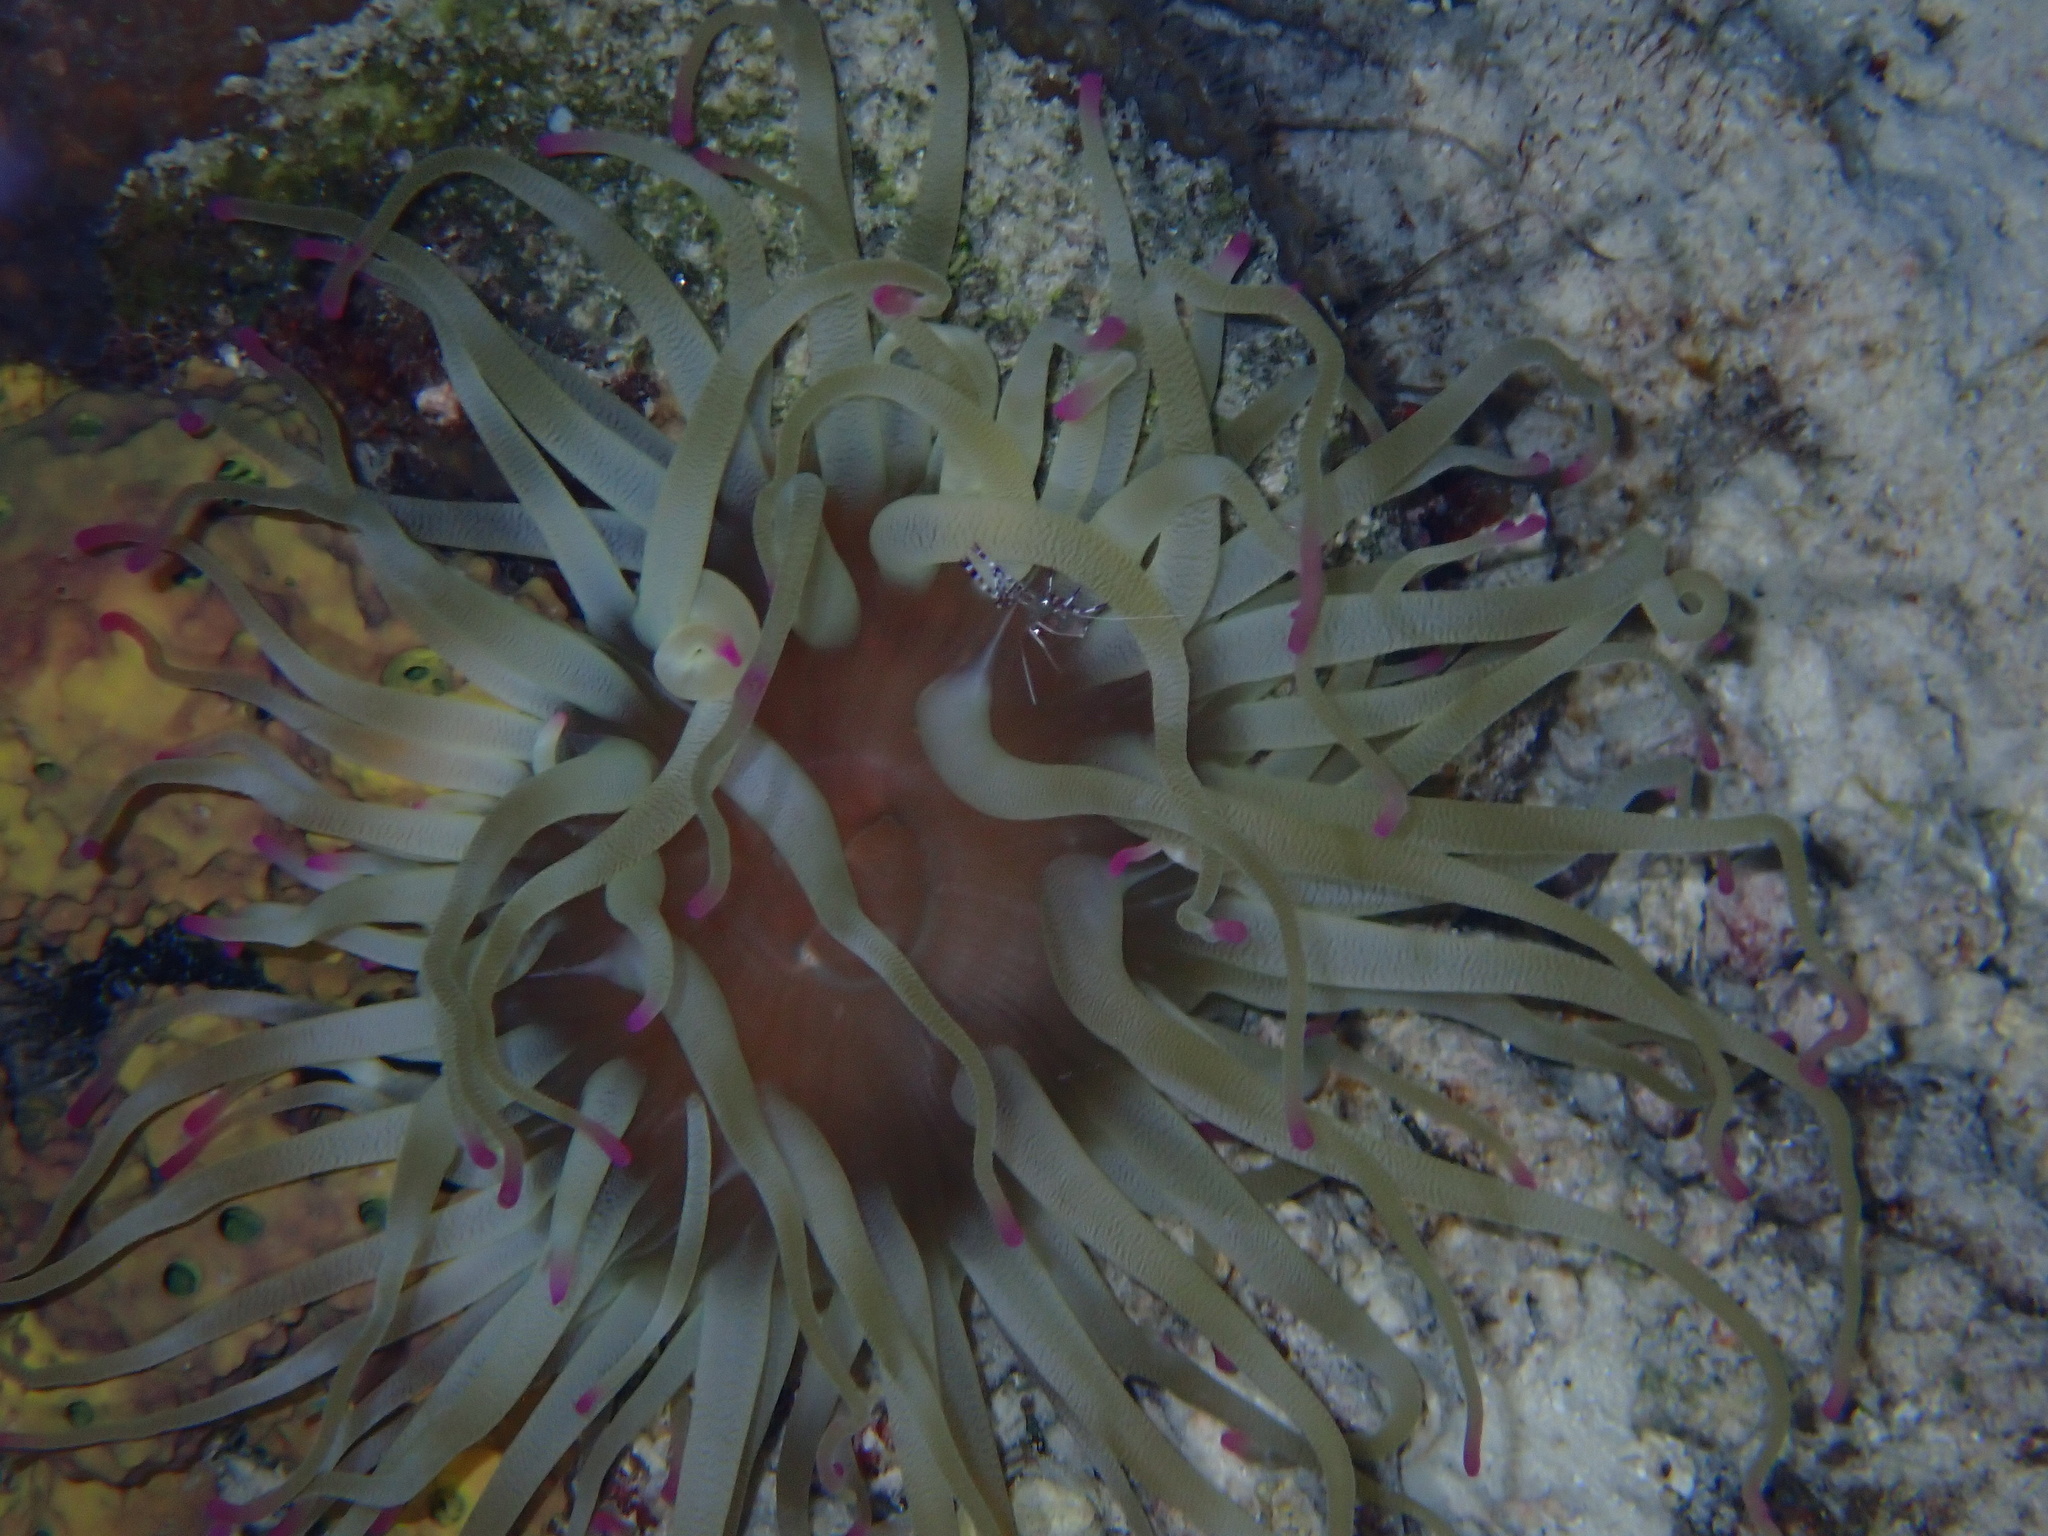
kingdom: Animalia
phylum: Cnidaria
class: Anthozoa
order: Actiniaria
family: Actiniidae
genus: Condylactis
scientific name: Condylactis gigantea
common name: Giant caribbean anemone
